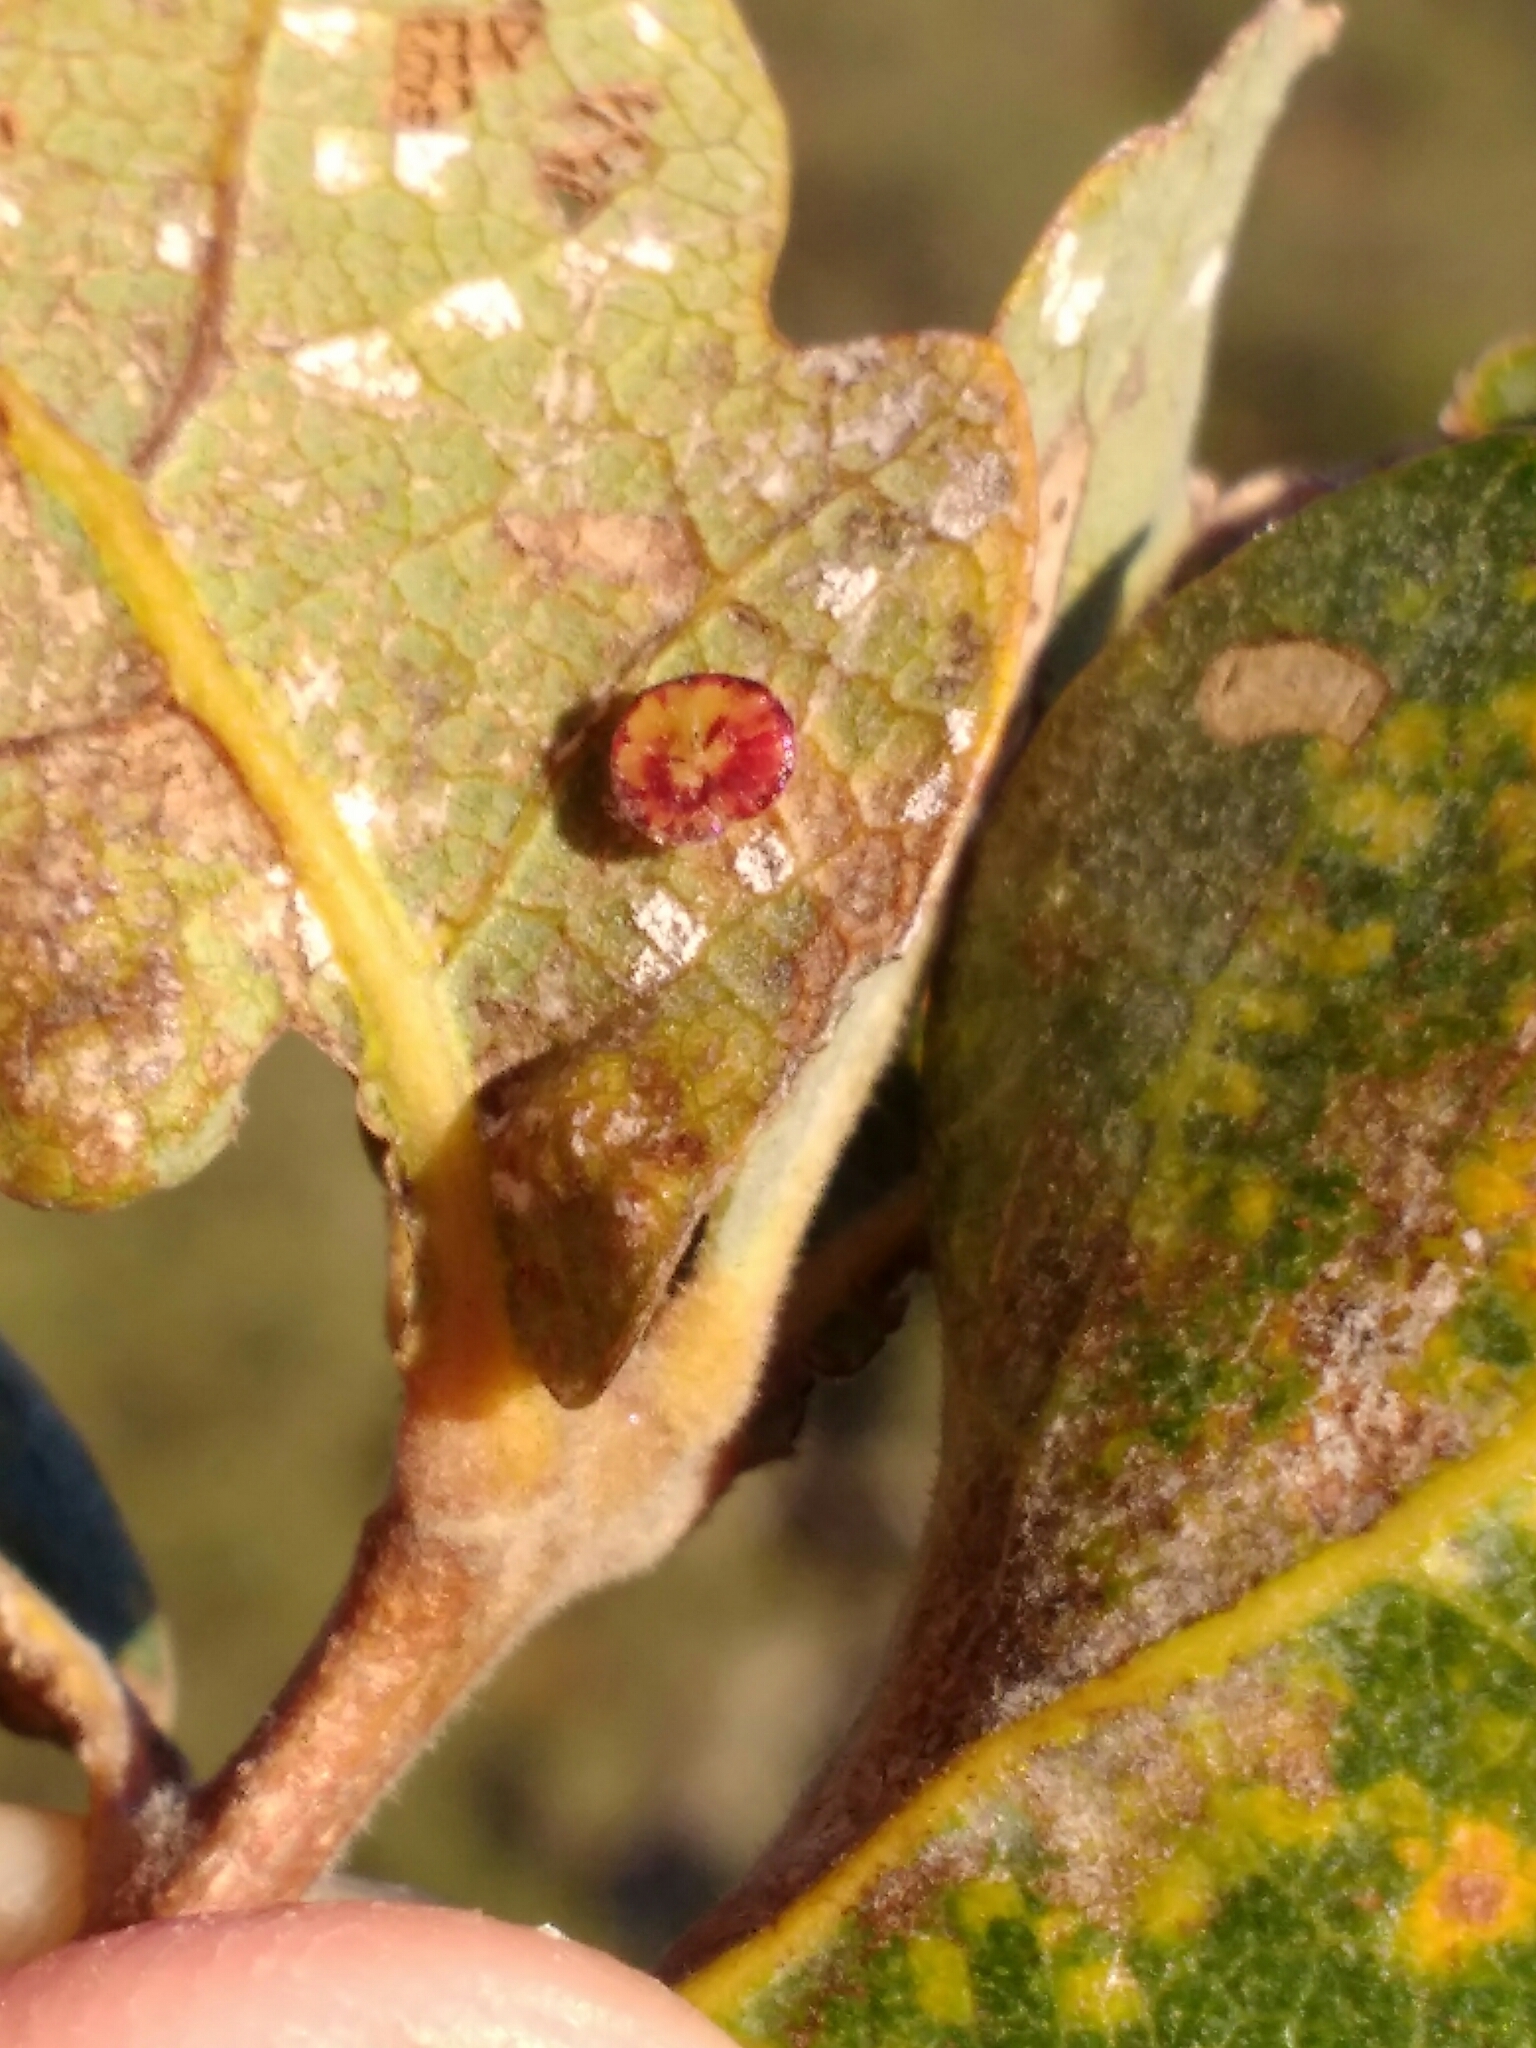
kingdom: Animalia
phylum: Arthropoda
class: Insecta
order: Hymenoptera
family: Cynipidae
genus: Andricus
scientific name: Andricus
